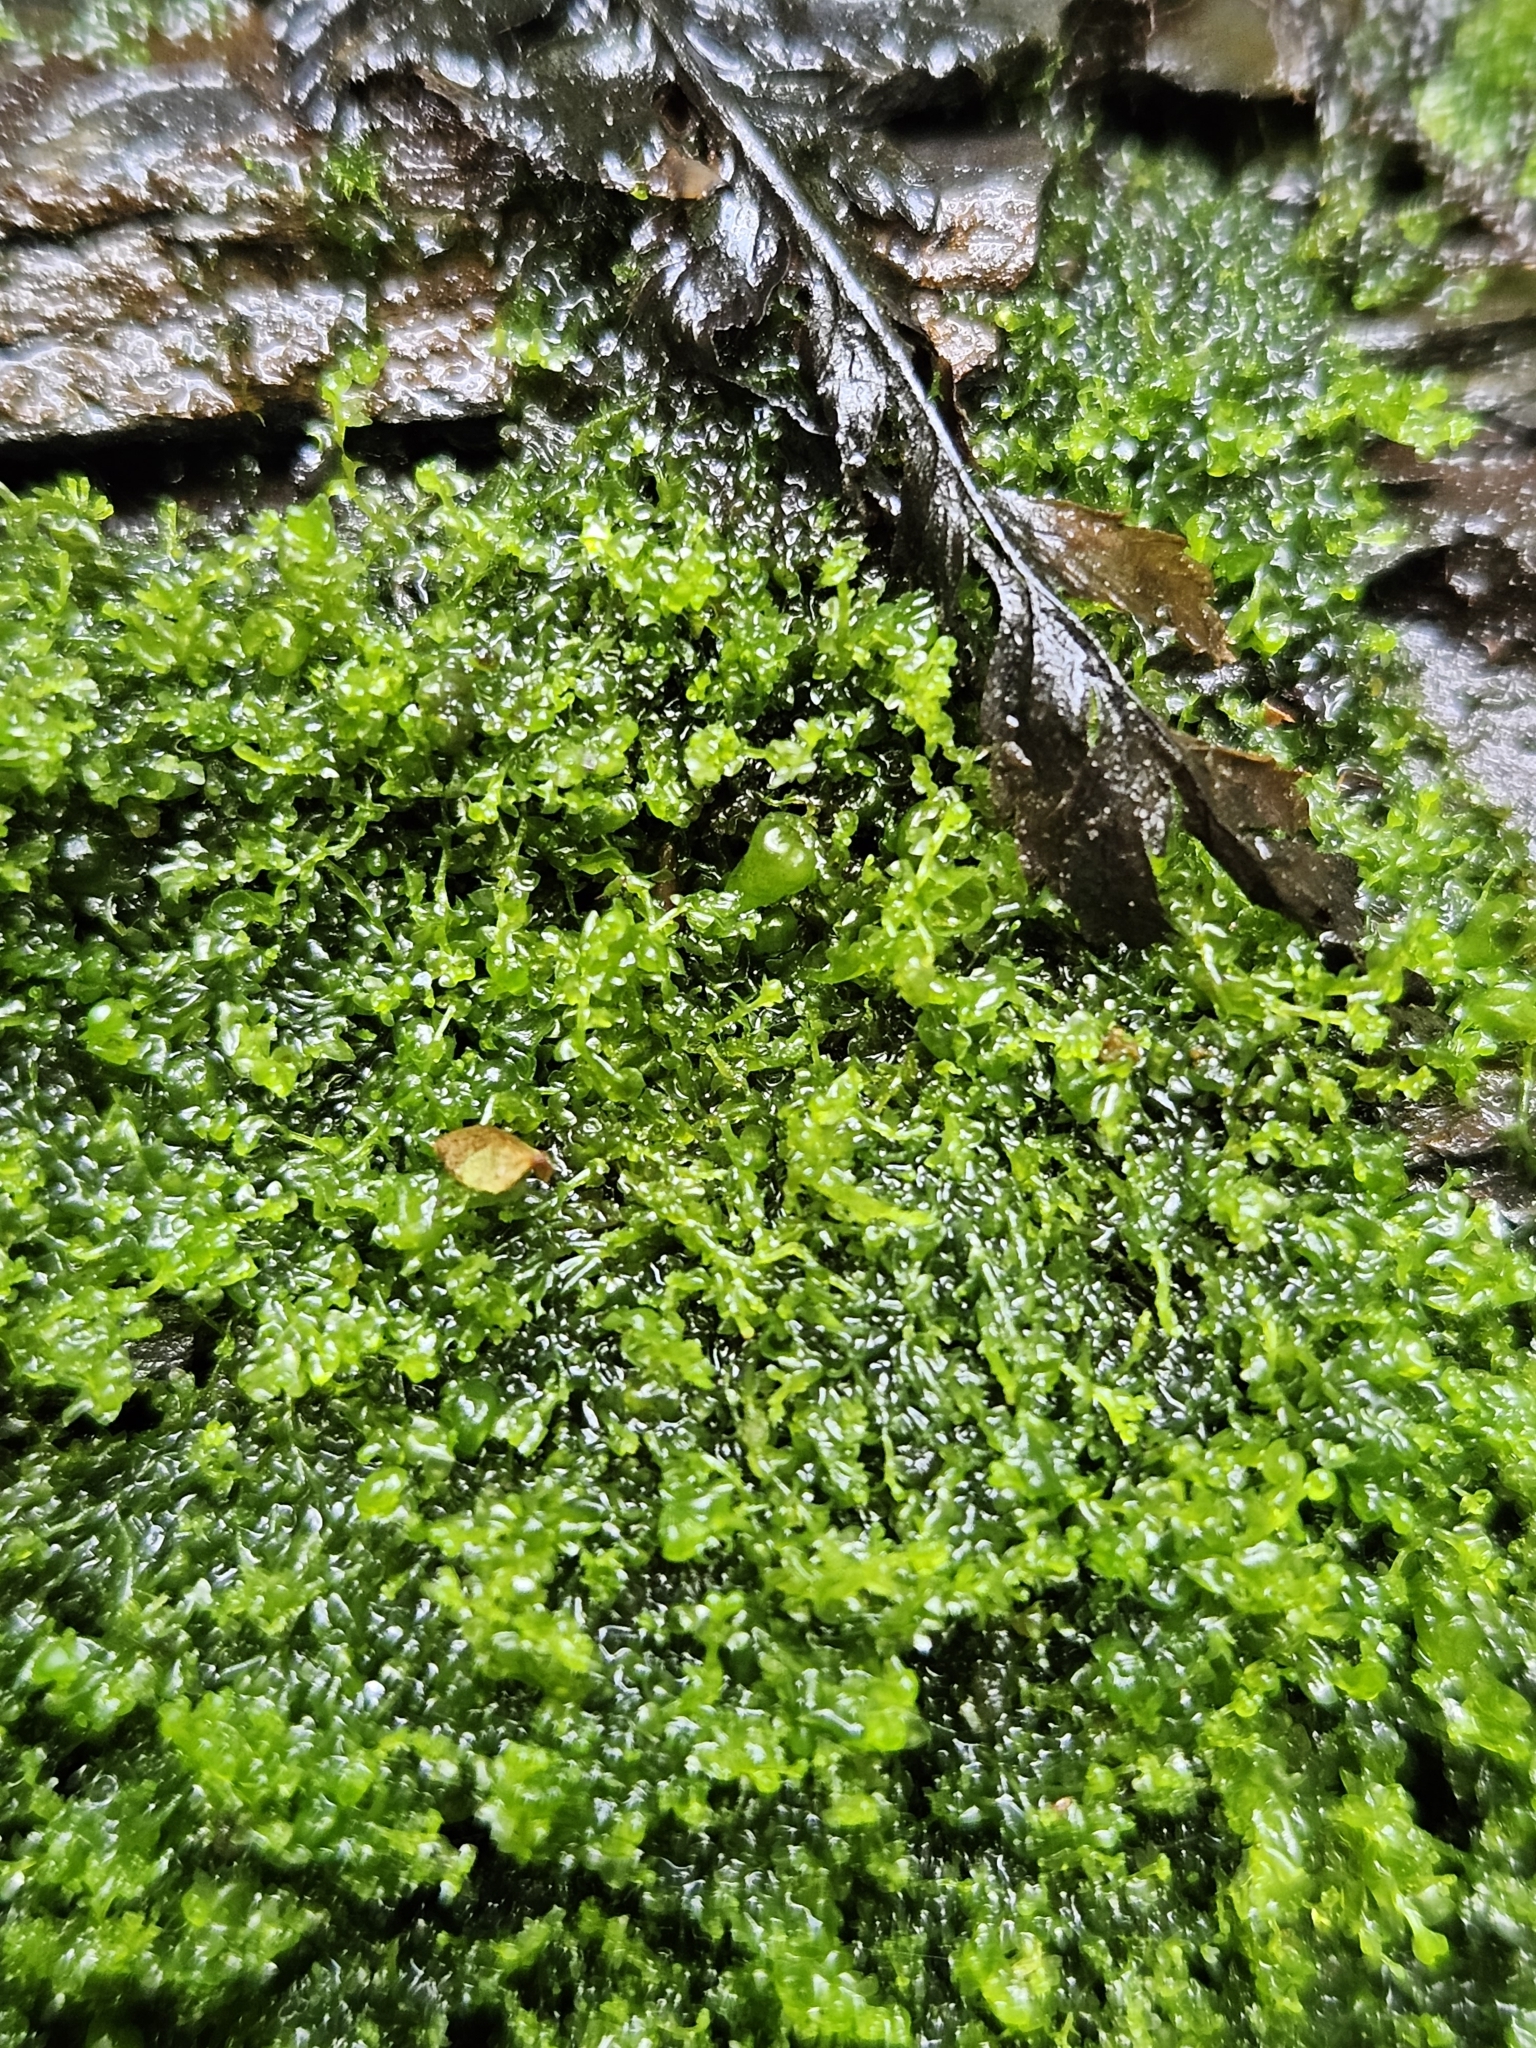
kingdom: Plantae
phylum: Marchantiophyta
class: Jungermanniopsida
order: Jungermanniales
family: Anastrophyllaceae
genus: Gymnocolea
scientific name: Gymnocolea inflata
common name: Inflated notchwort
